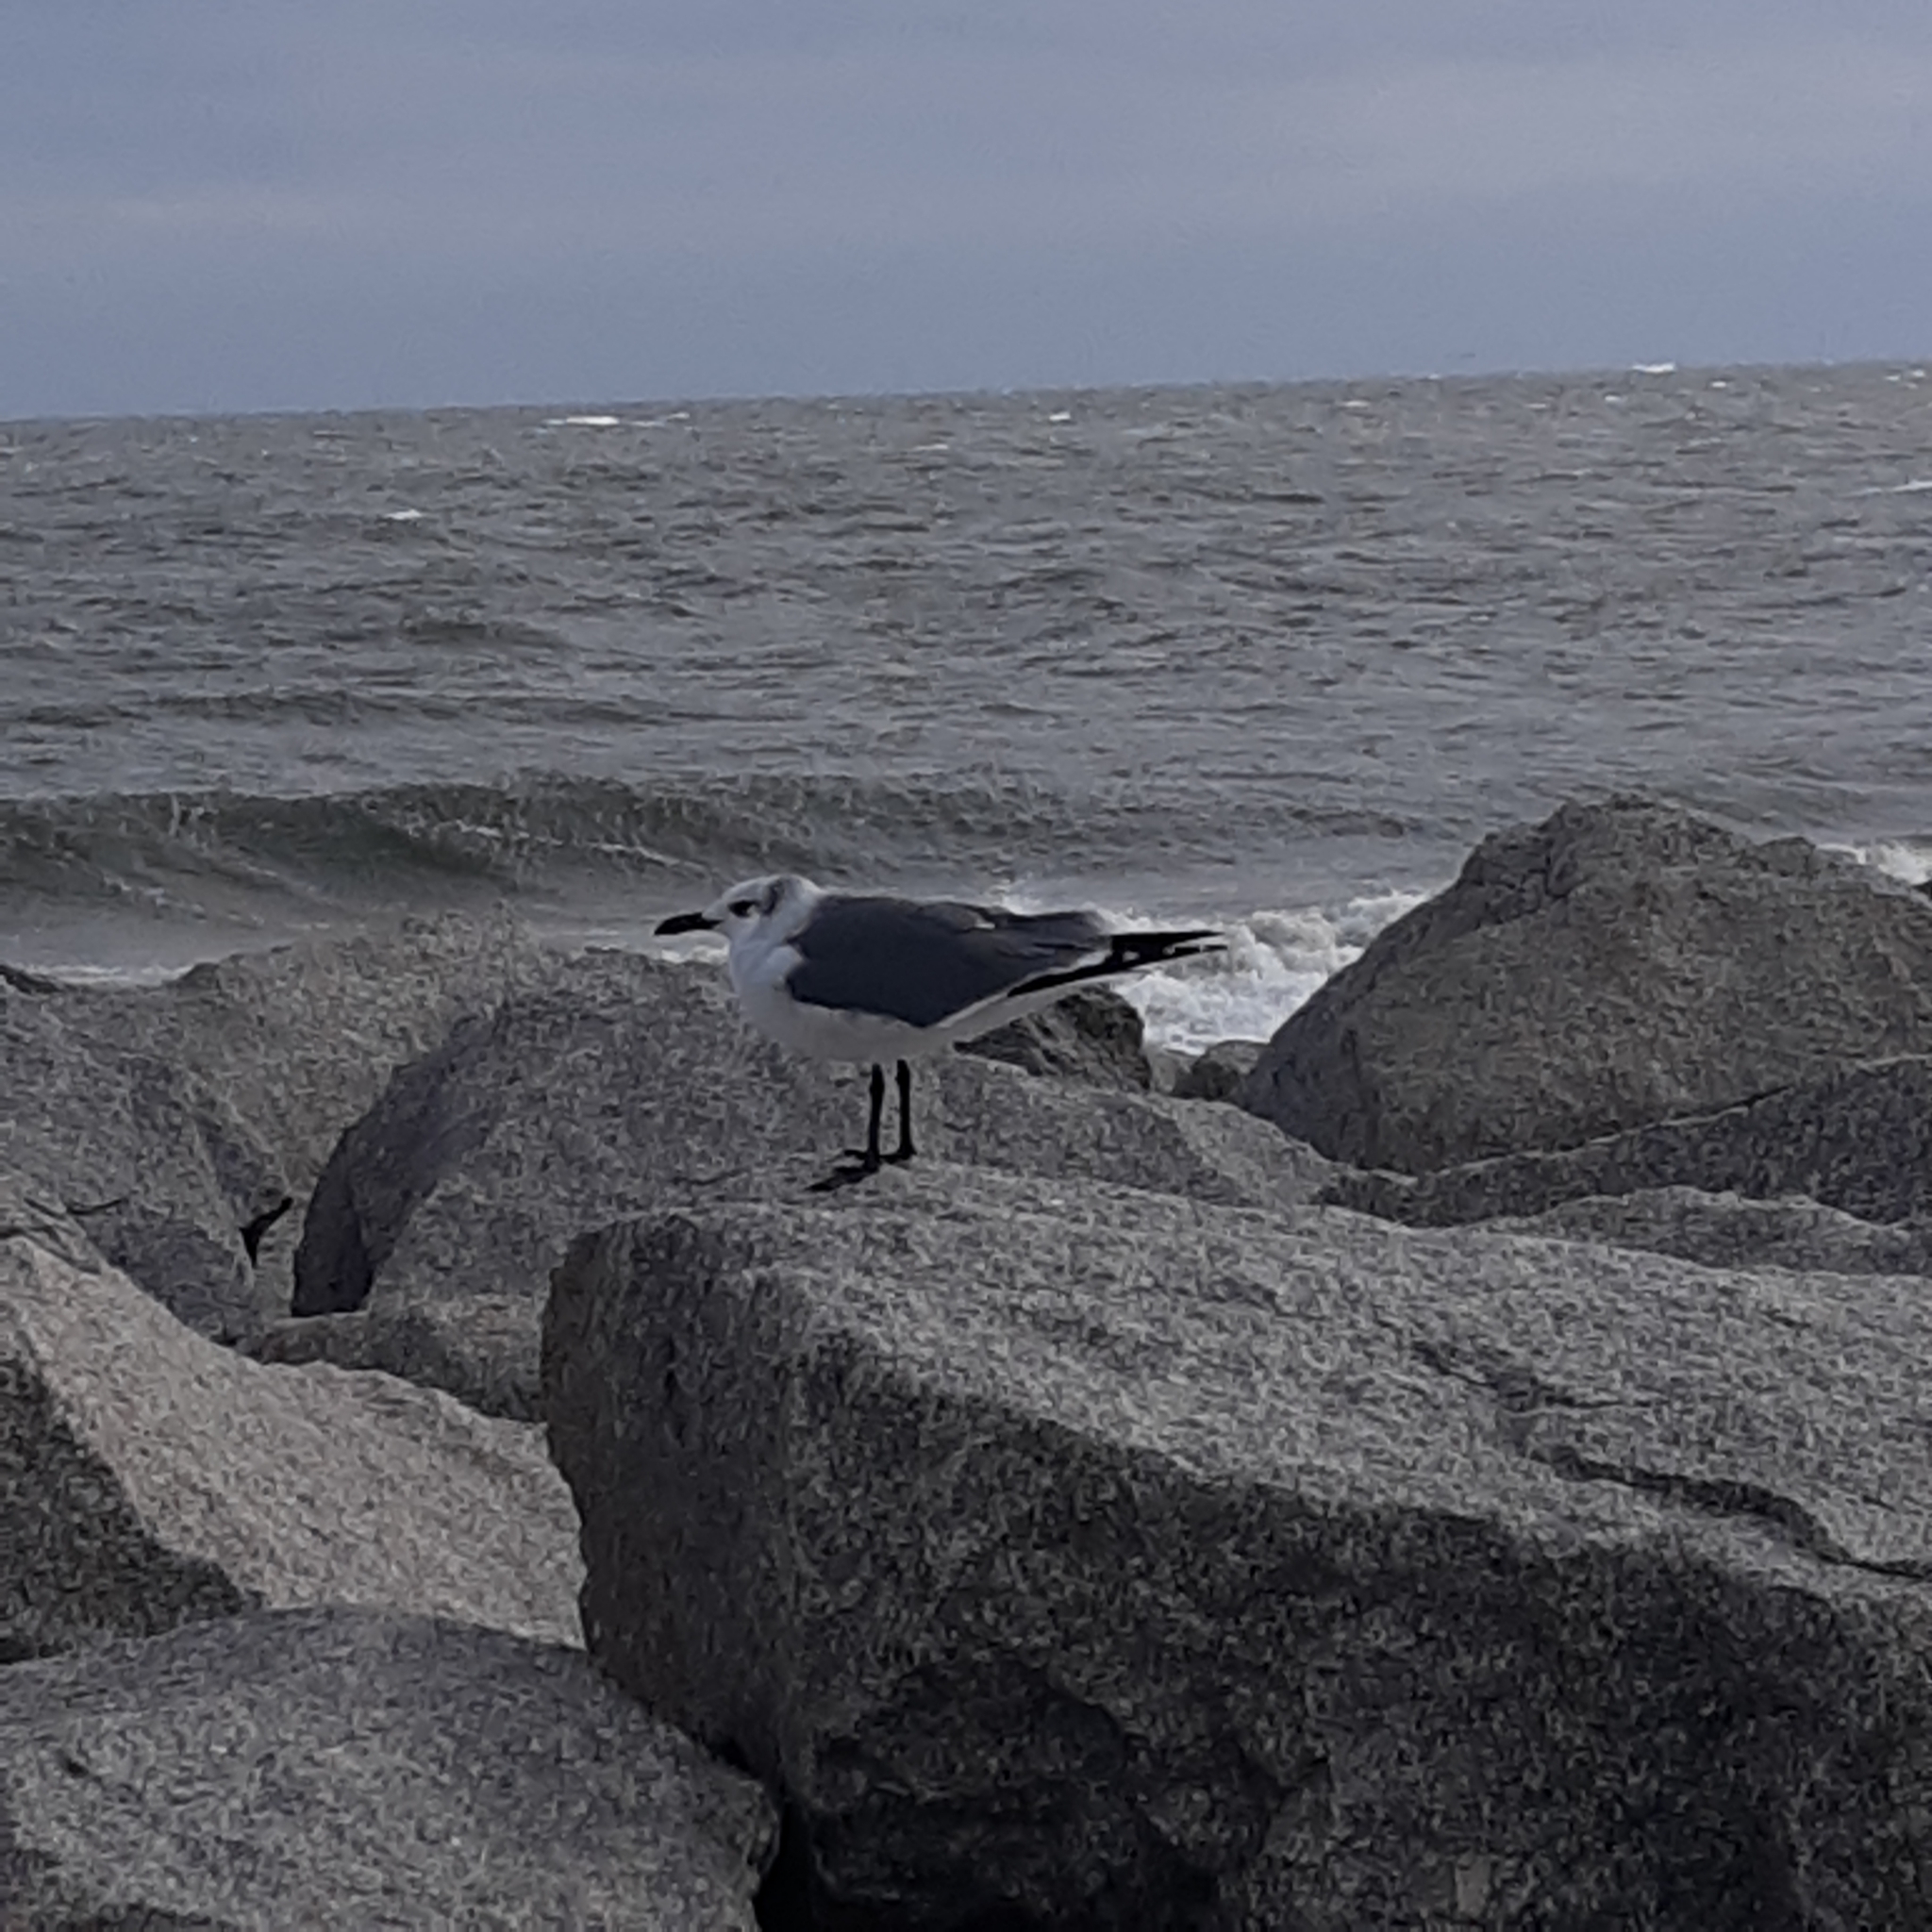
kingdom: Animalia
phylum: Chordata
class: Aves
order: Charadriiformes
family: Laridae
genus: Leucophaeus
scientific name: Leucophaeus atricilla
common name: Laughing gull
